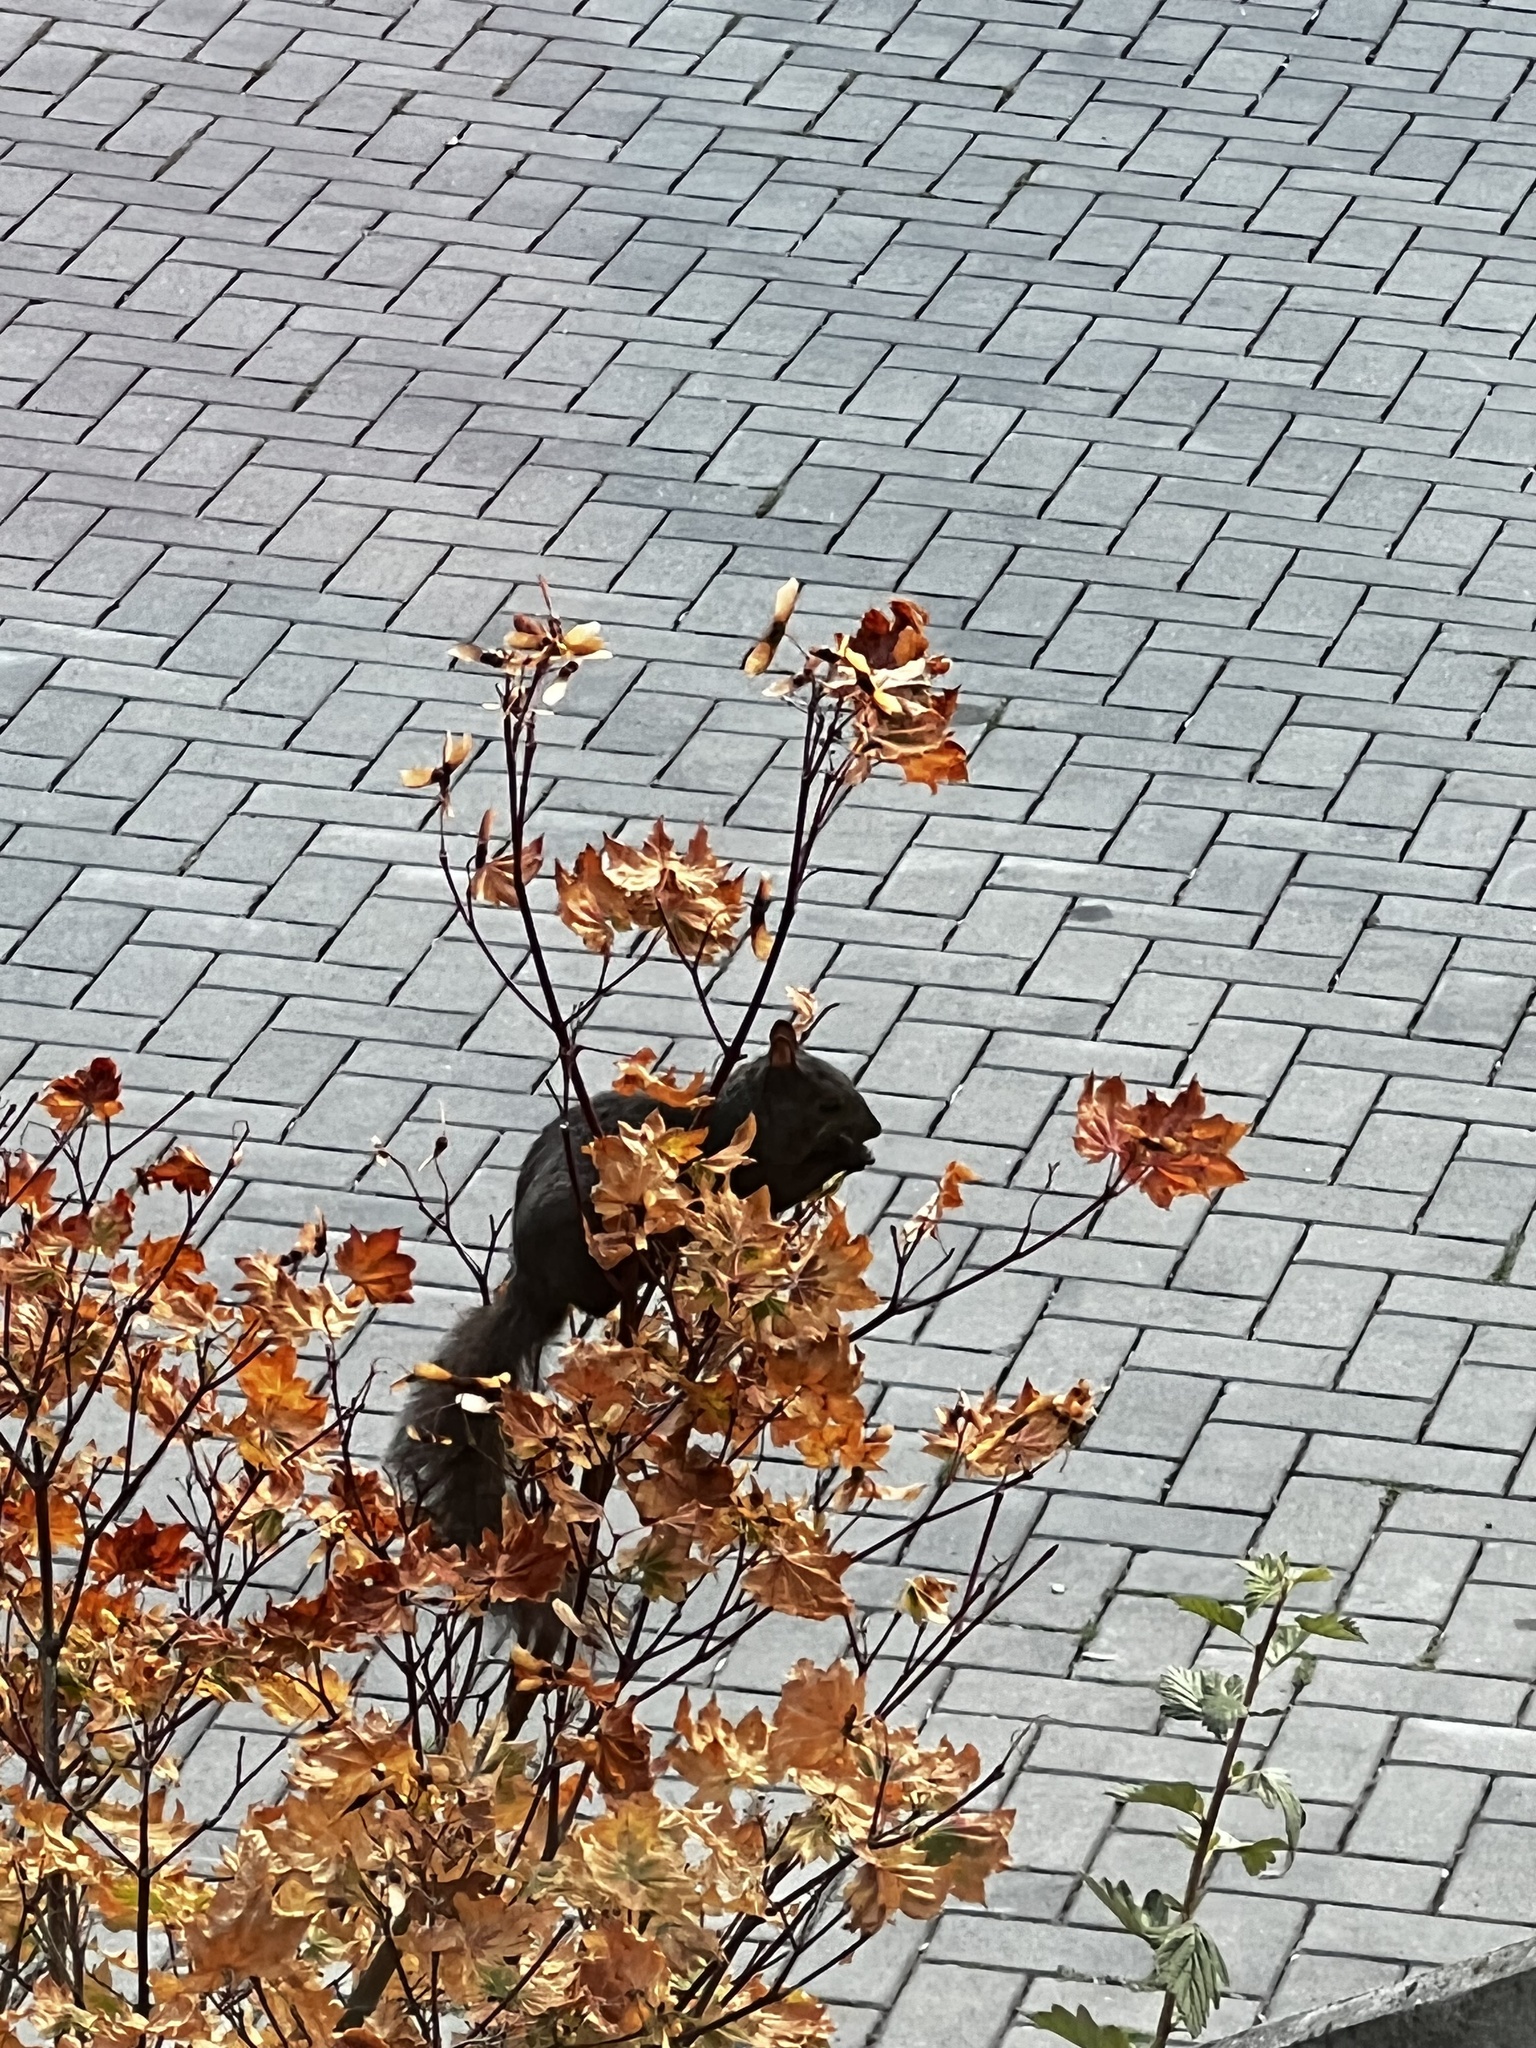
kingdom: Animalia
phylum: Chordata
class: Mammalia
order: Rodentia
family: Sciuridae
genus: Sciurus
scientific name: Sciurus carolinensis
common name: Eastern gray squirrel
